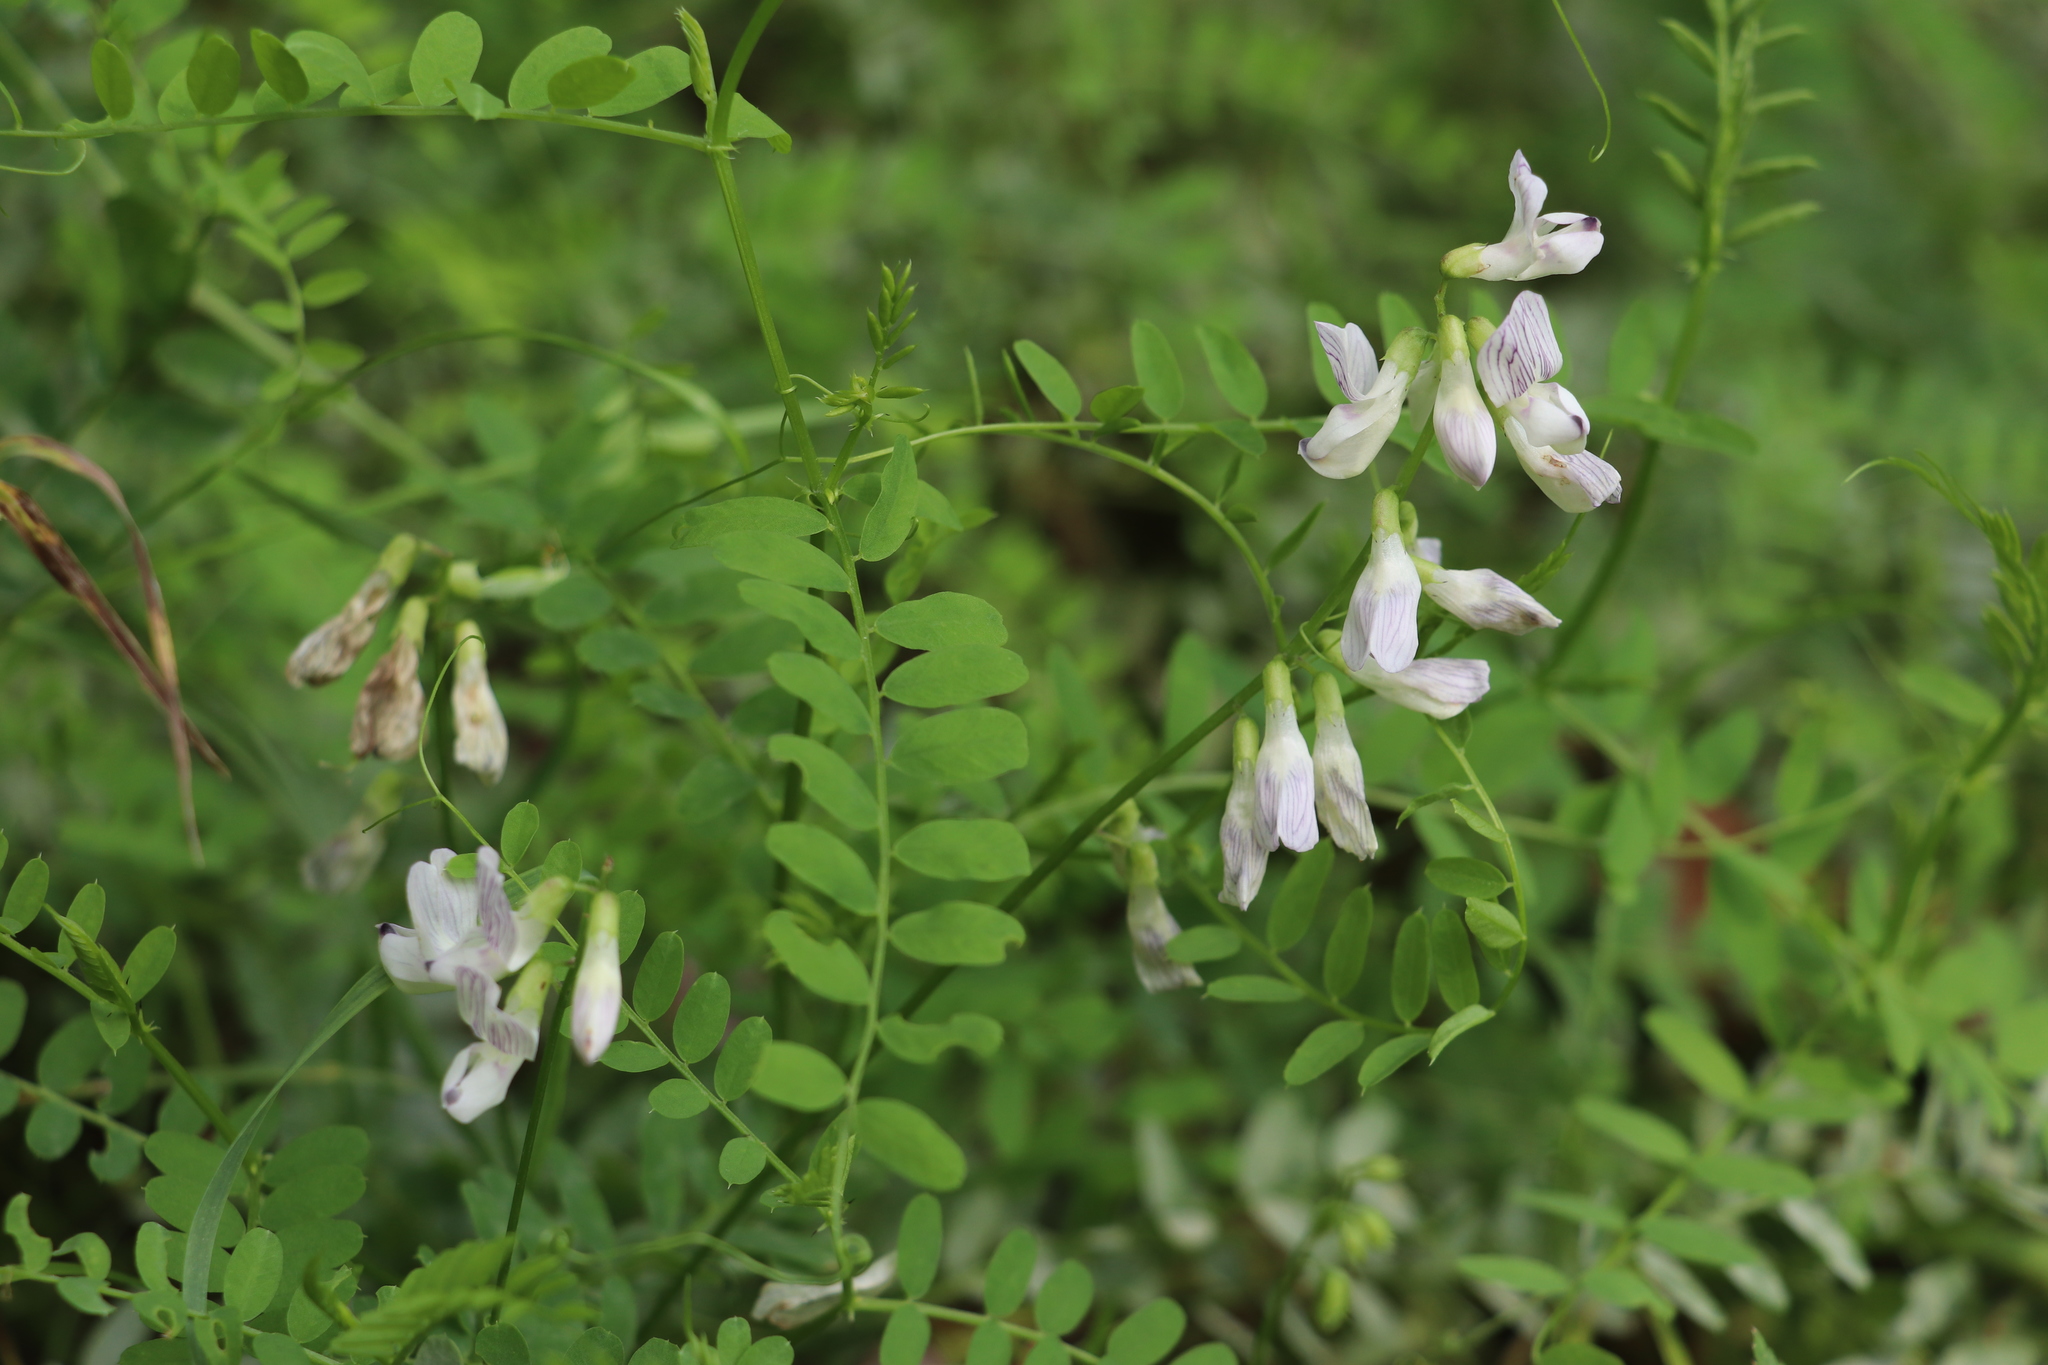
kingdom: Plantae
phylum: Tracheophyta
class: Magnoliopsida
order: Fabales
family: Fabaceae
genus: Vicia
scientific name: Vicia sylvatica
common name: Wood vetch
